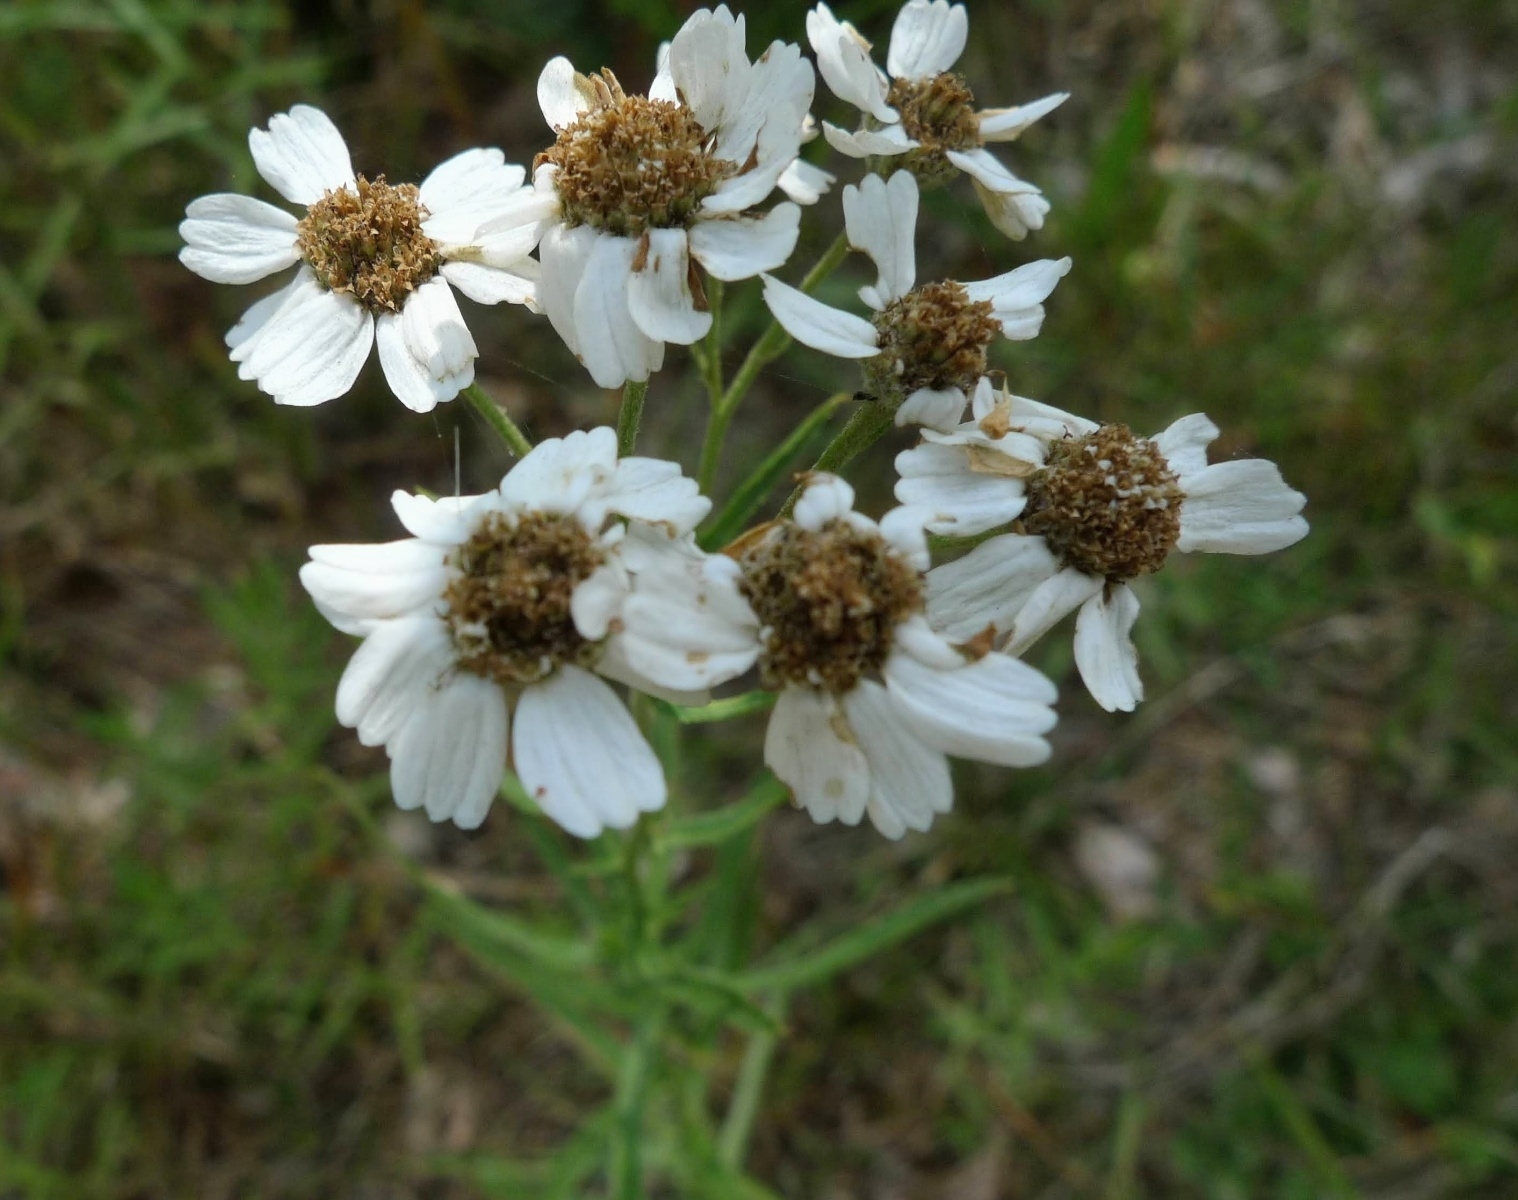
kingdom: Plantae
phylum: Tracheophyta
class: Magnoliopsida
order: Asterales
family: Asteraceae
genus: Achillea
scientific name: Achillea ptarmica
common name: Sneezeweed
